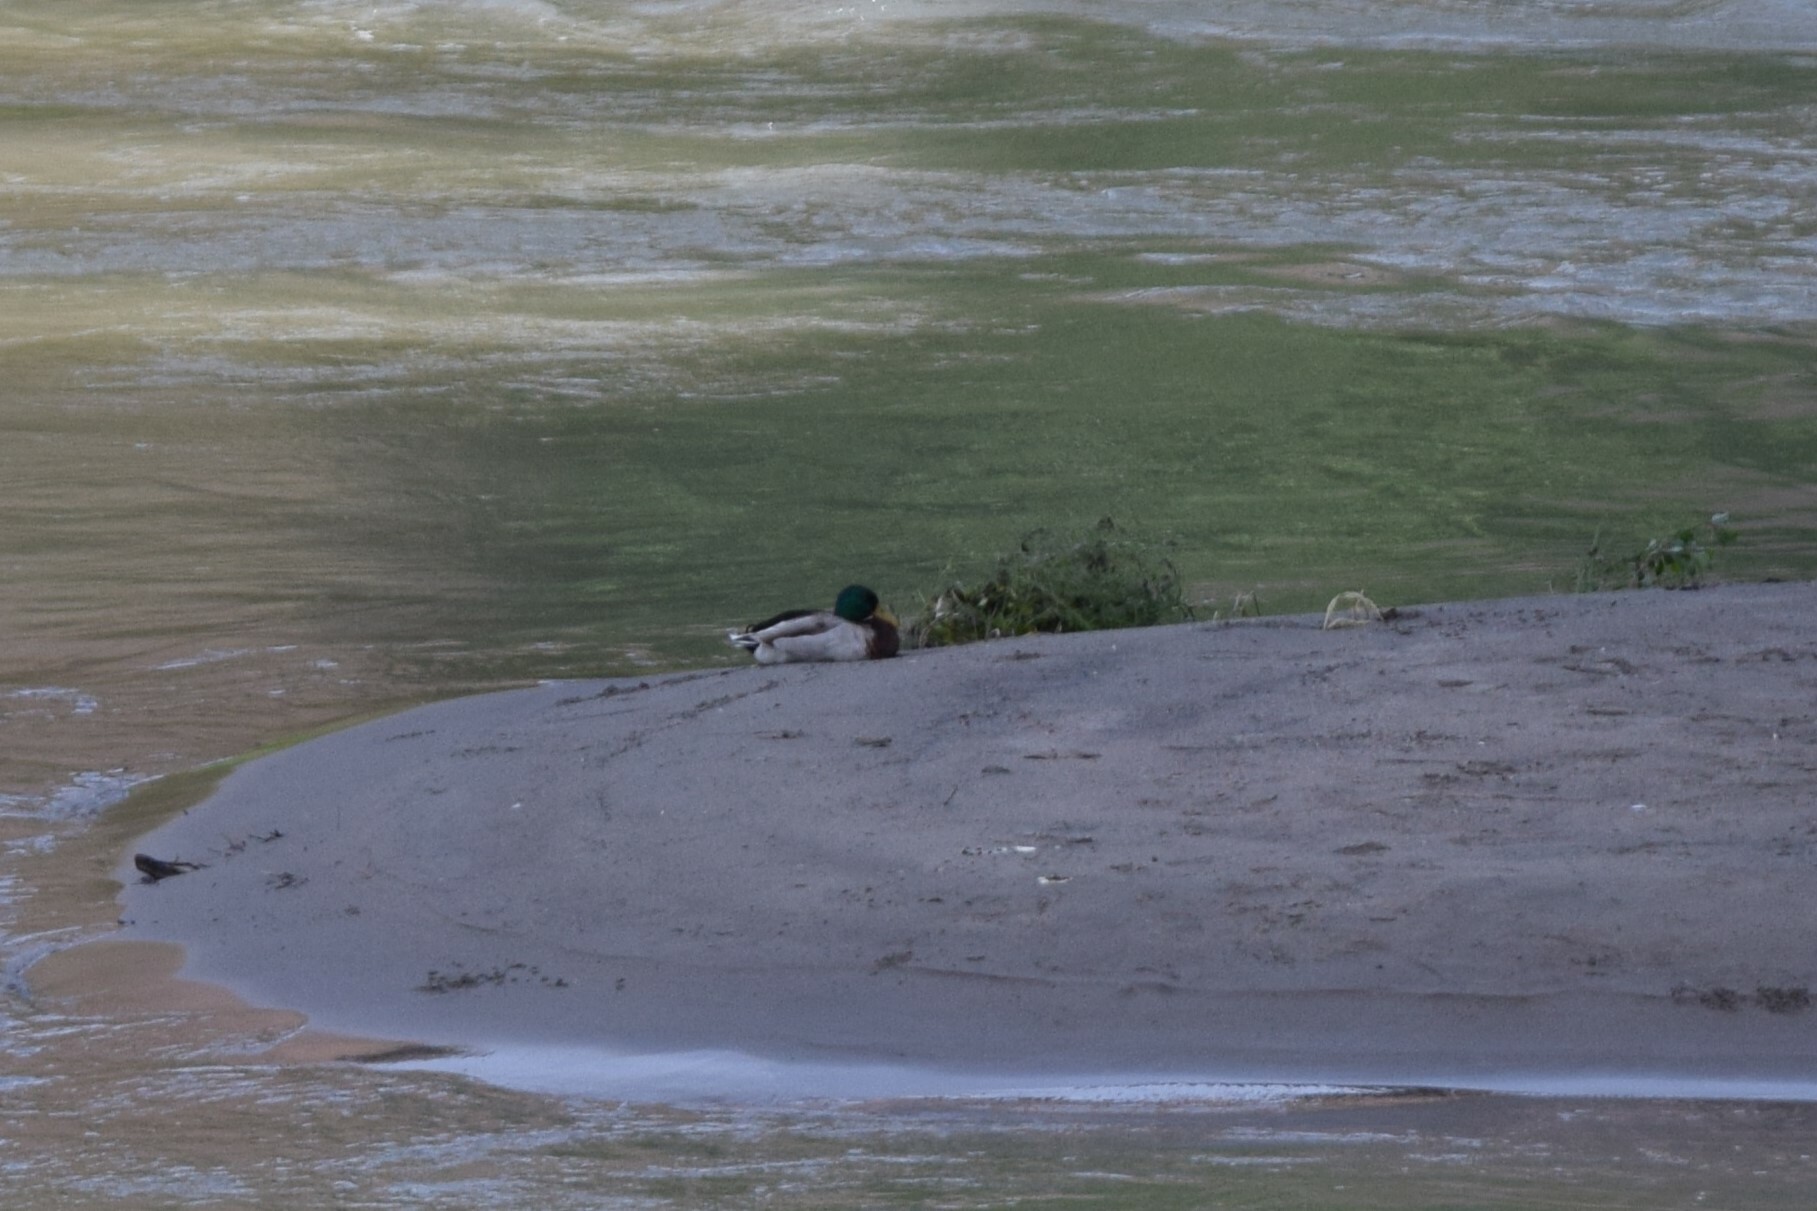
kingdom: Animalia
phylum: Chordata
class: Aves
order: Anseriformes
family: Anatidae
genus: Anas
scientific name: Anas platyrhynchos
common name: Mallard
